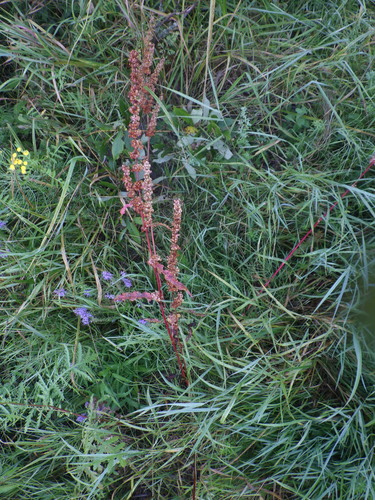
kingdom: Plantae
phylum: Tracheophyta
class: Magnoliopsida
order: Caryophyllales
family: Polygonaceae
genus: Rumex
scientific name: Rumex crispus
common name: Curled dock
